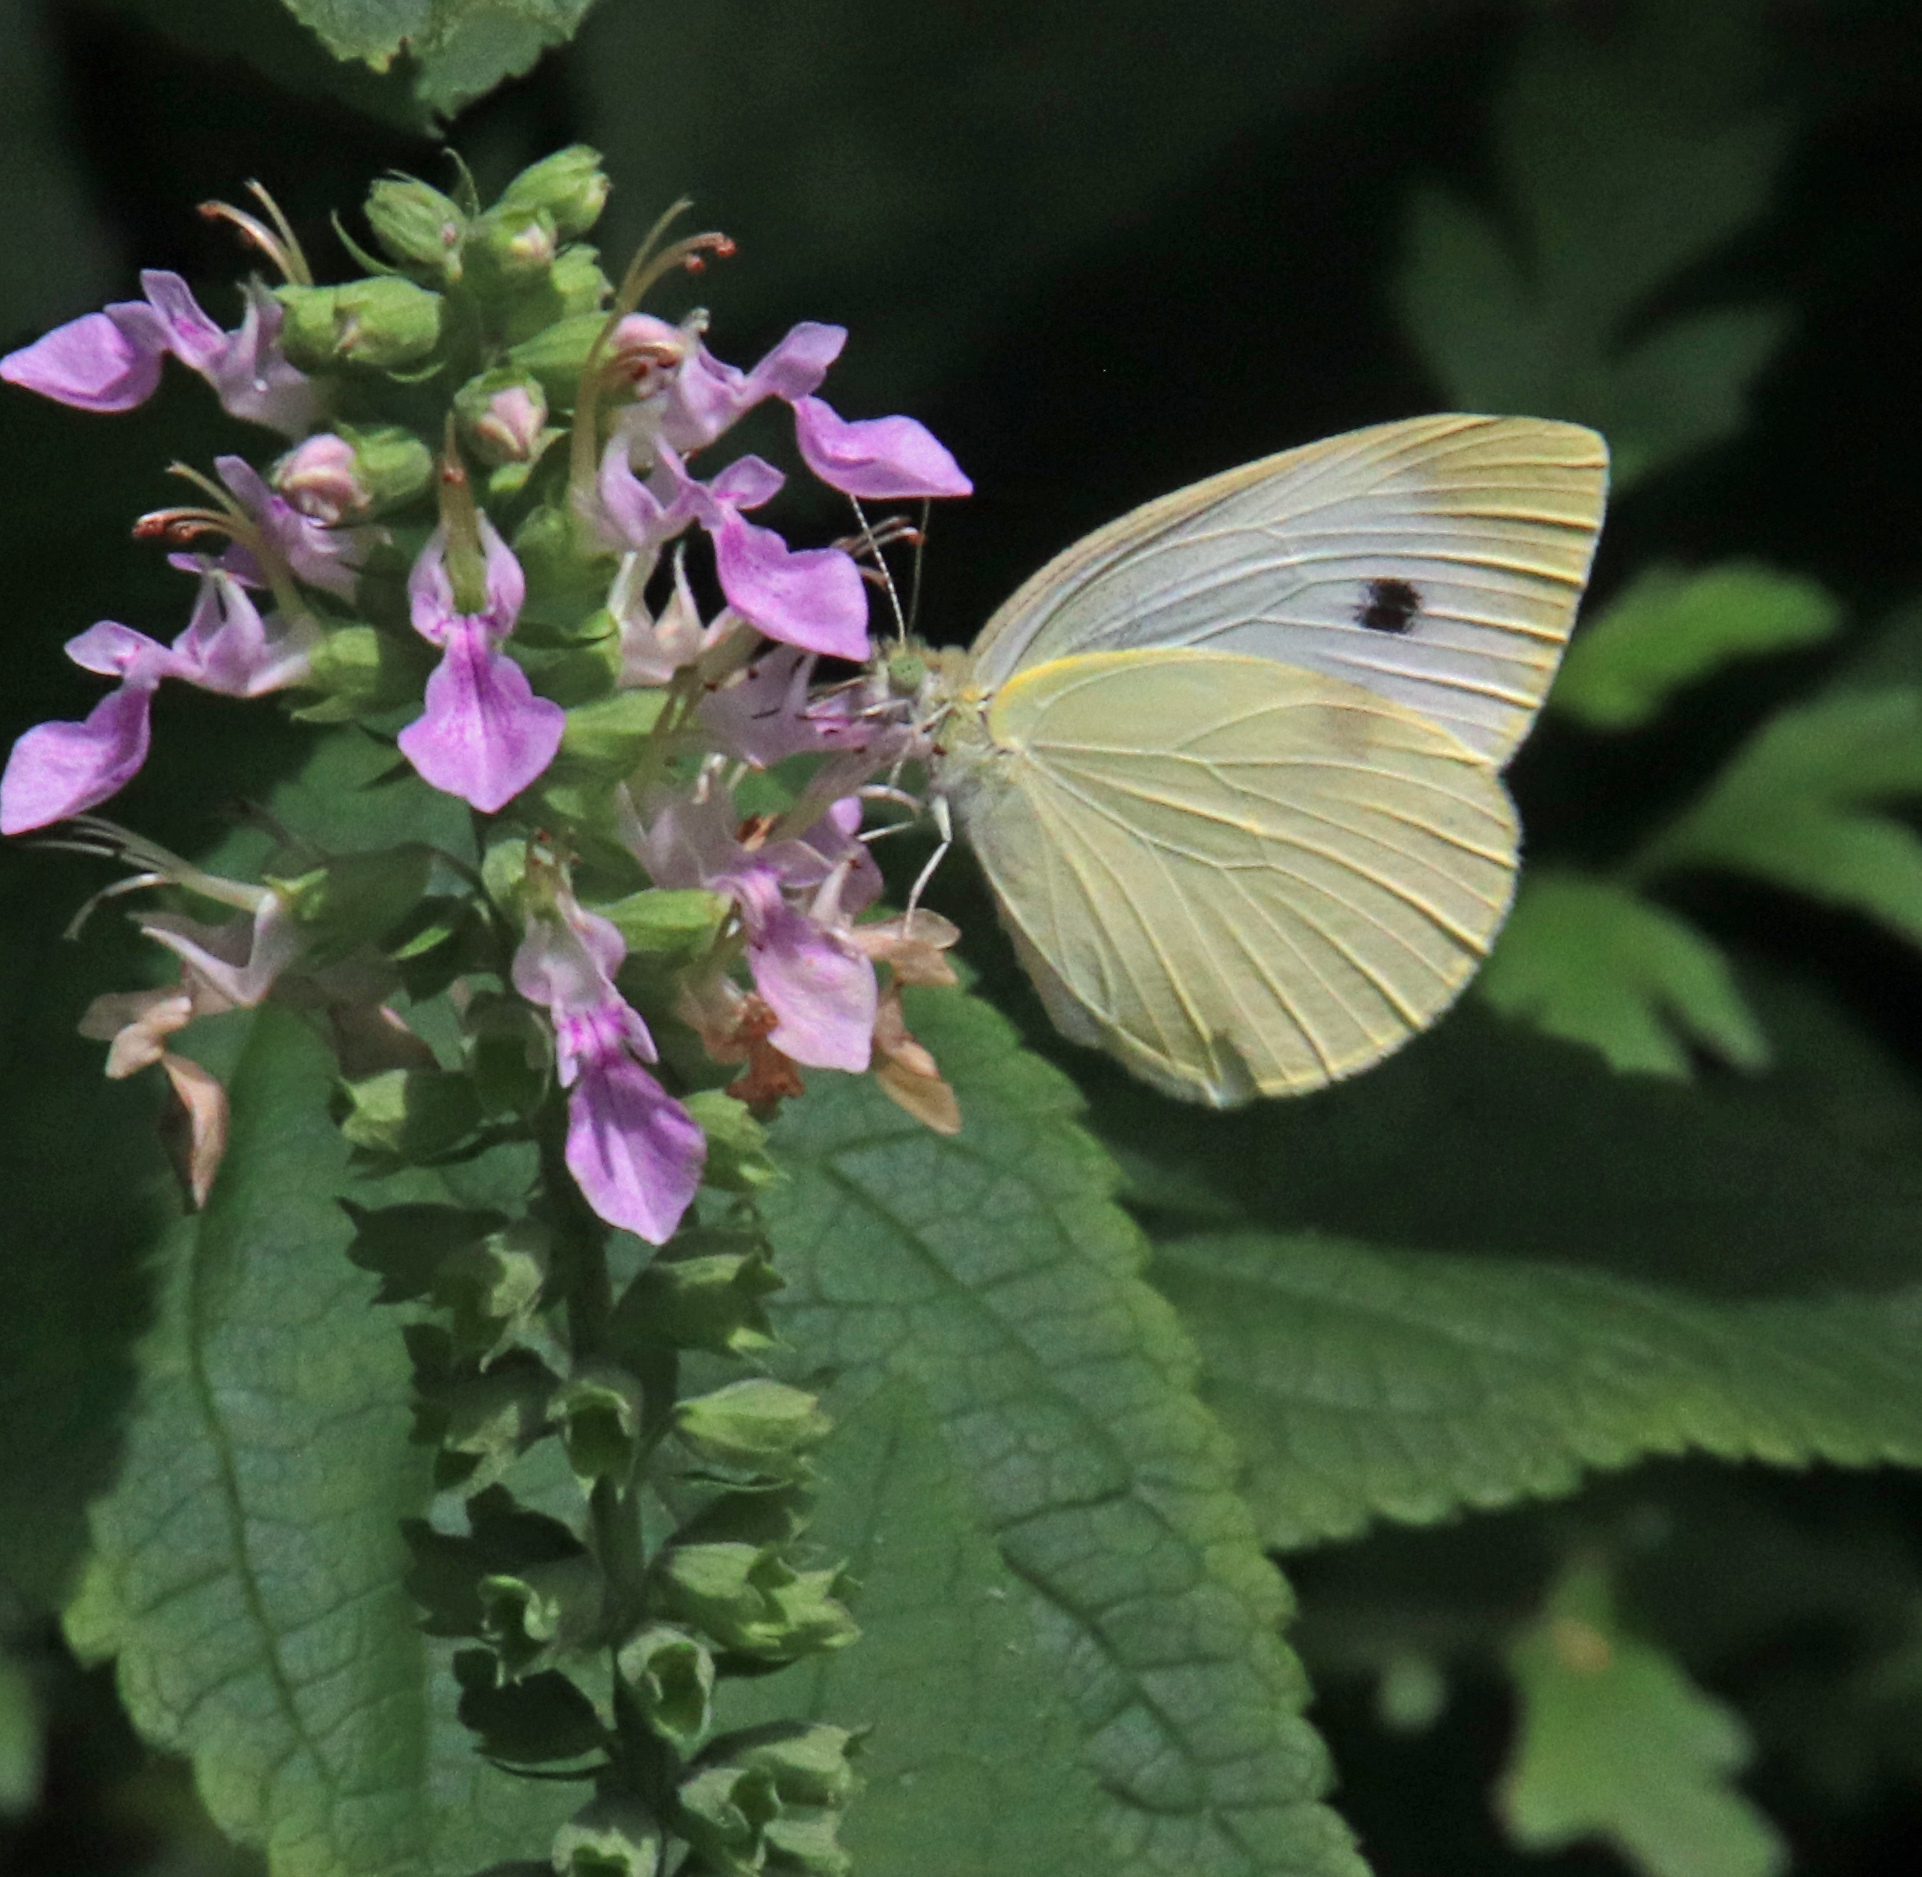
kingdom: Animalia
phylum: Arthropoda
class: Insecta
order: Lepidoptera
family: Pieridae
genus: Pieris
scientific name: Pieris rapae
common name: Small white
